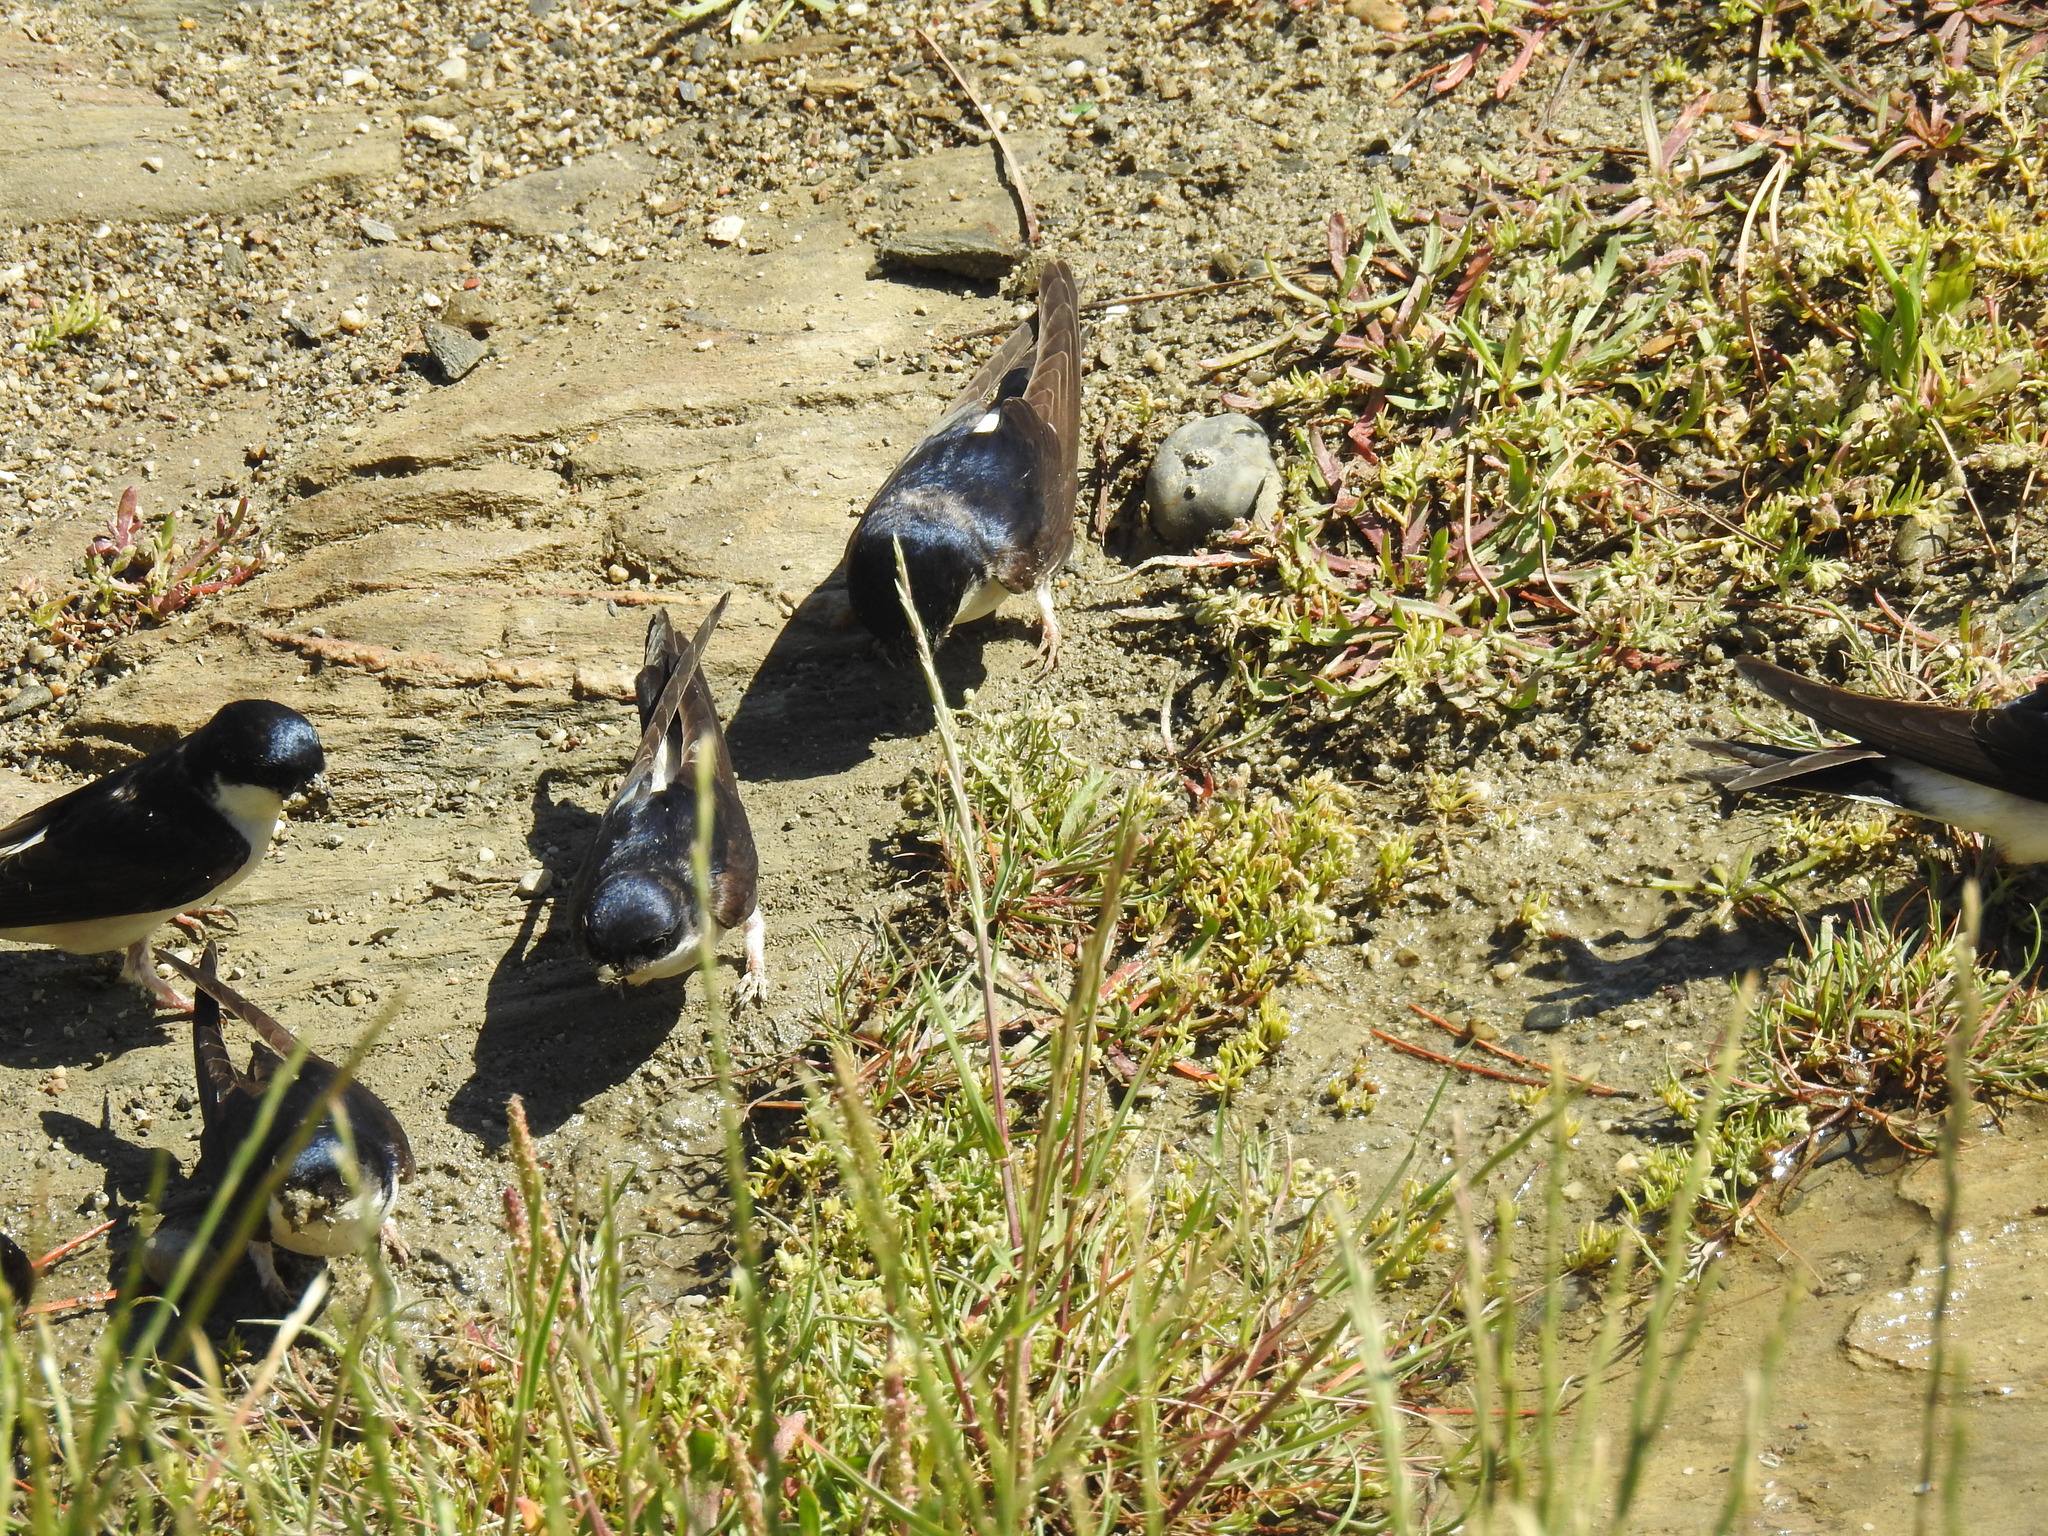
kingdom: Animalia
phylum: Chordata
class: Aves
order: Passeriformes
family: Hirundinidae
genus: Delichon
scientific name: Delichon urbicum
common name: Common house martin
